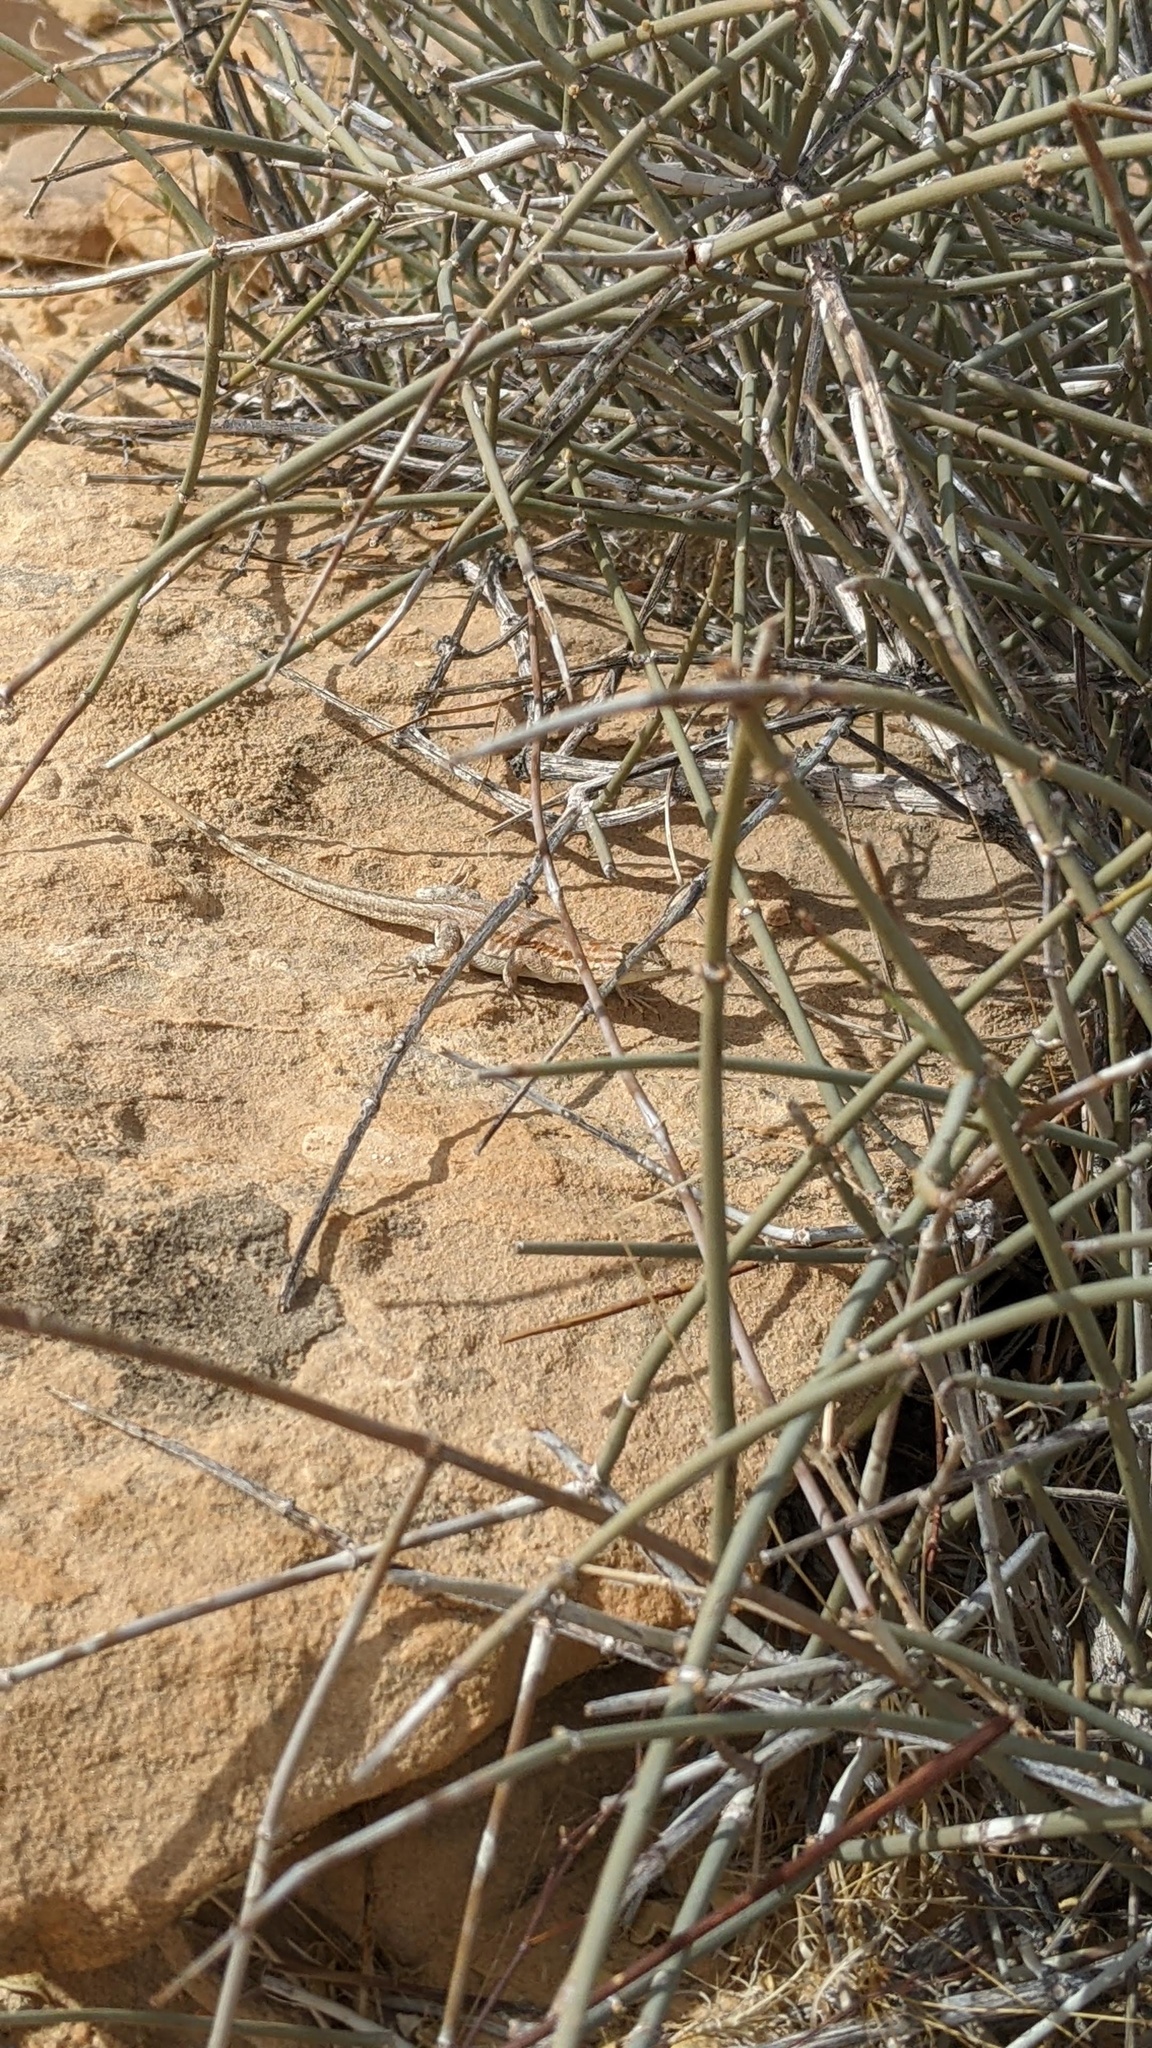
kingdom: Animalia
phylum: Chordata
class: Squamata
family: Phrynosomatidae
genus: Uta
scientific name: Uta stansburiana
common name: Side-blotched lizard
